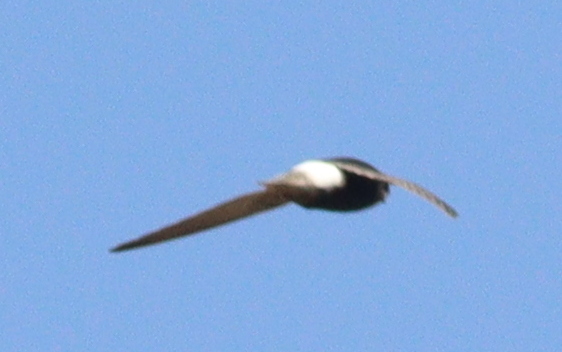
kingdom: Animalia
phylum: Chordata
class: Aves
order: Apodiformes
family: Apodidae
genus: Apus
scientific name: Apus affinis
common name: Little swift
